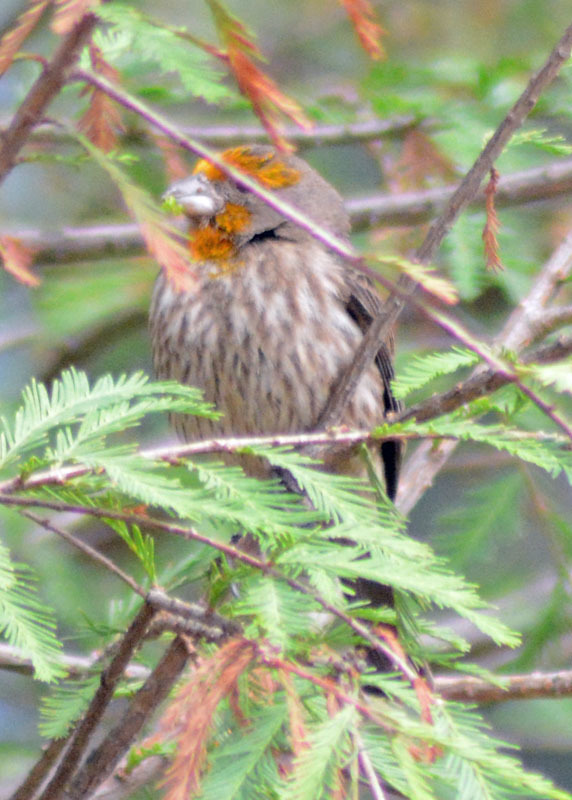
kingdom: Animalia
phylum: Chordata
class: Aves
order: Passeriformes
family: Fringillidae
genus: Haemorhous
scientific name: Haemorhous mexicanus
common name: House finch
